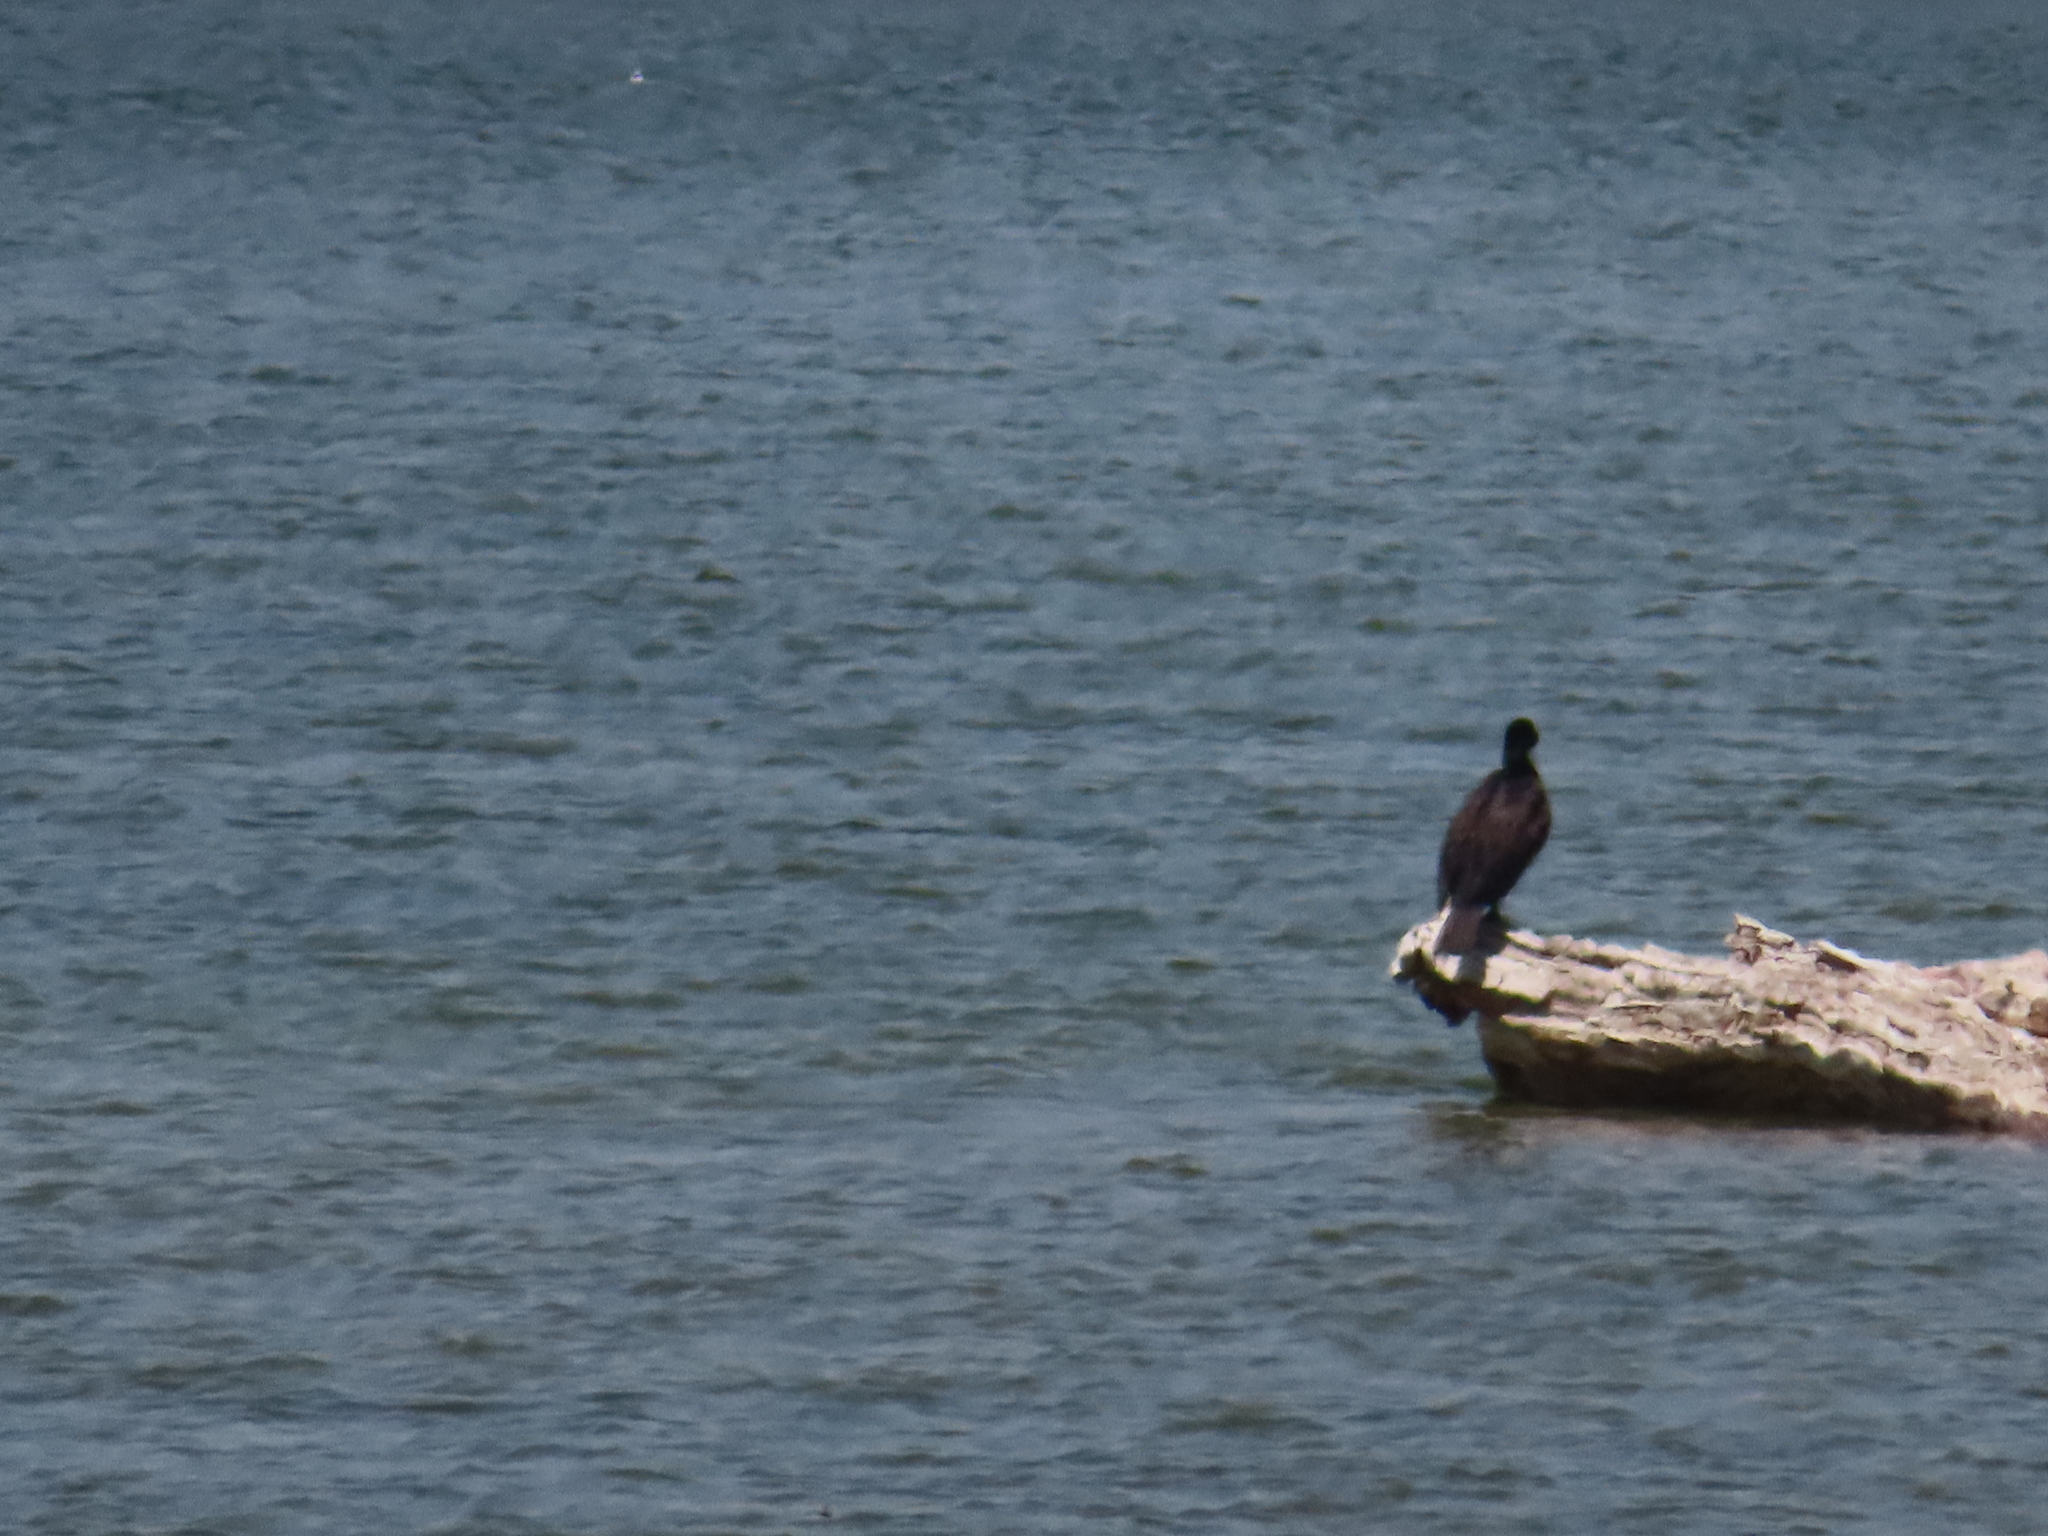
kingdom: Animalia
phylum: Chordata
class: Aves
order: Suliformes
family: Phalacrocoracidae
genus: Phalacrocorax
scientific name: Phalacrocorax auritus
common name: Double-crested cormorant
